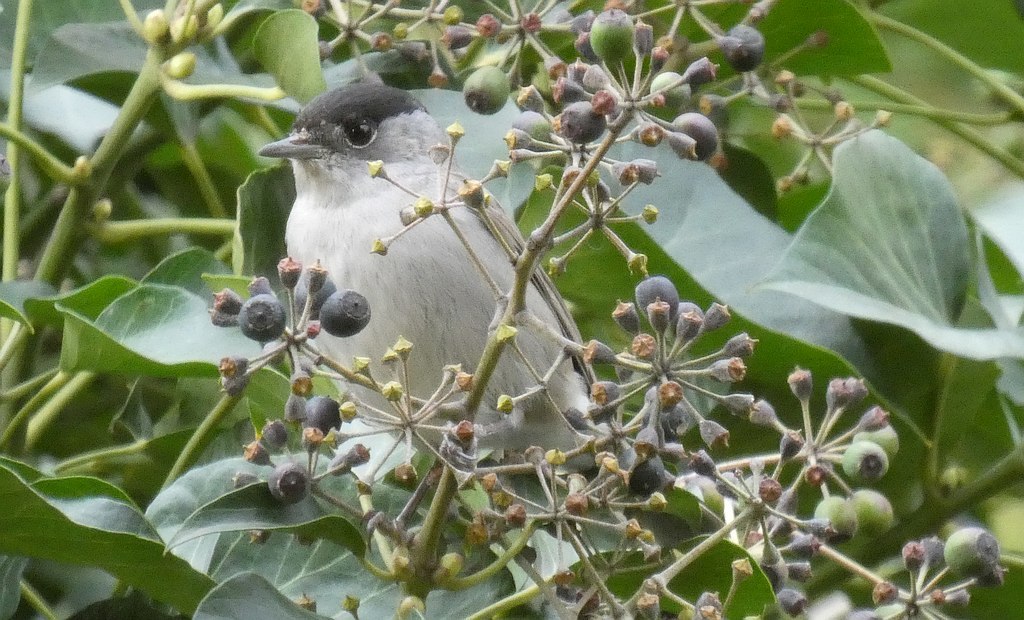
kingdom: Animalia
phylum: Chordata
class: Aves
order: Passeriformes
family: Sylviidae
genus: Sylvia
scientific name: Sylvia atricapilla
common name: Eurasian blackcap
